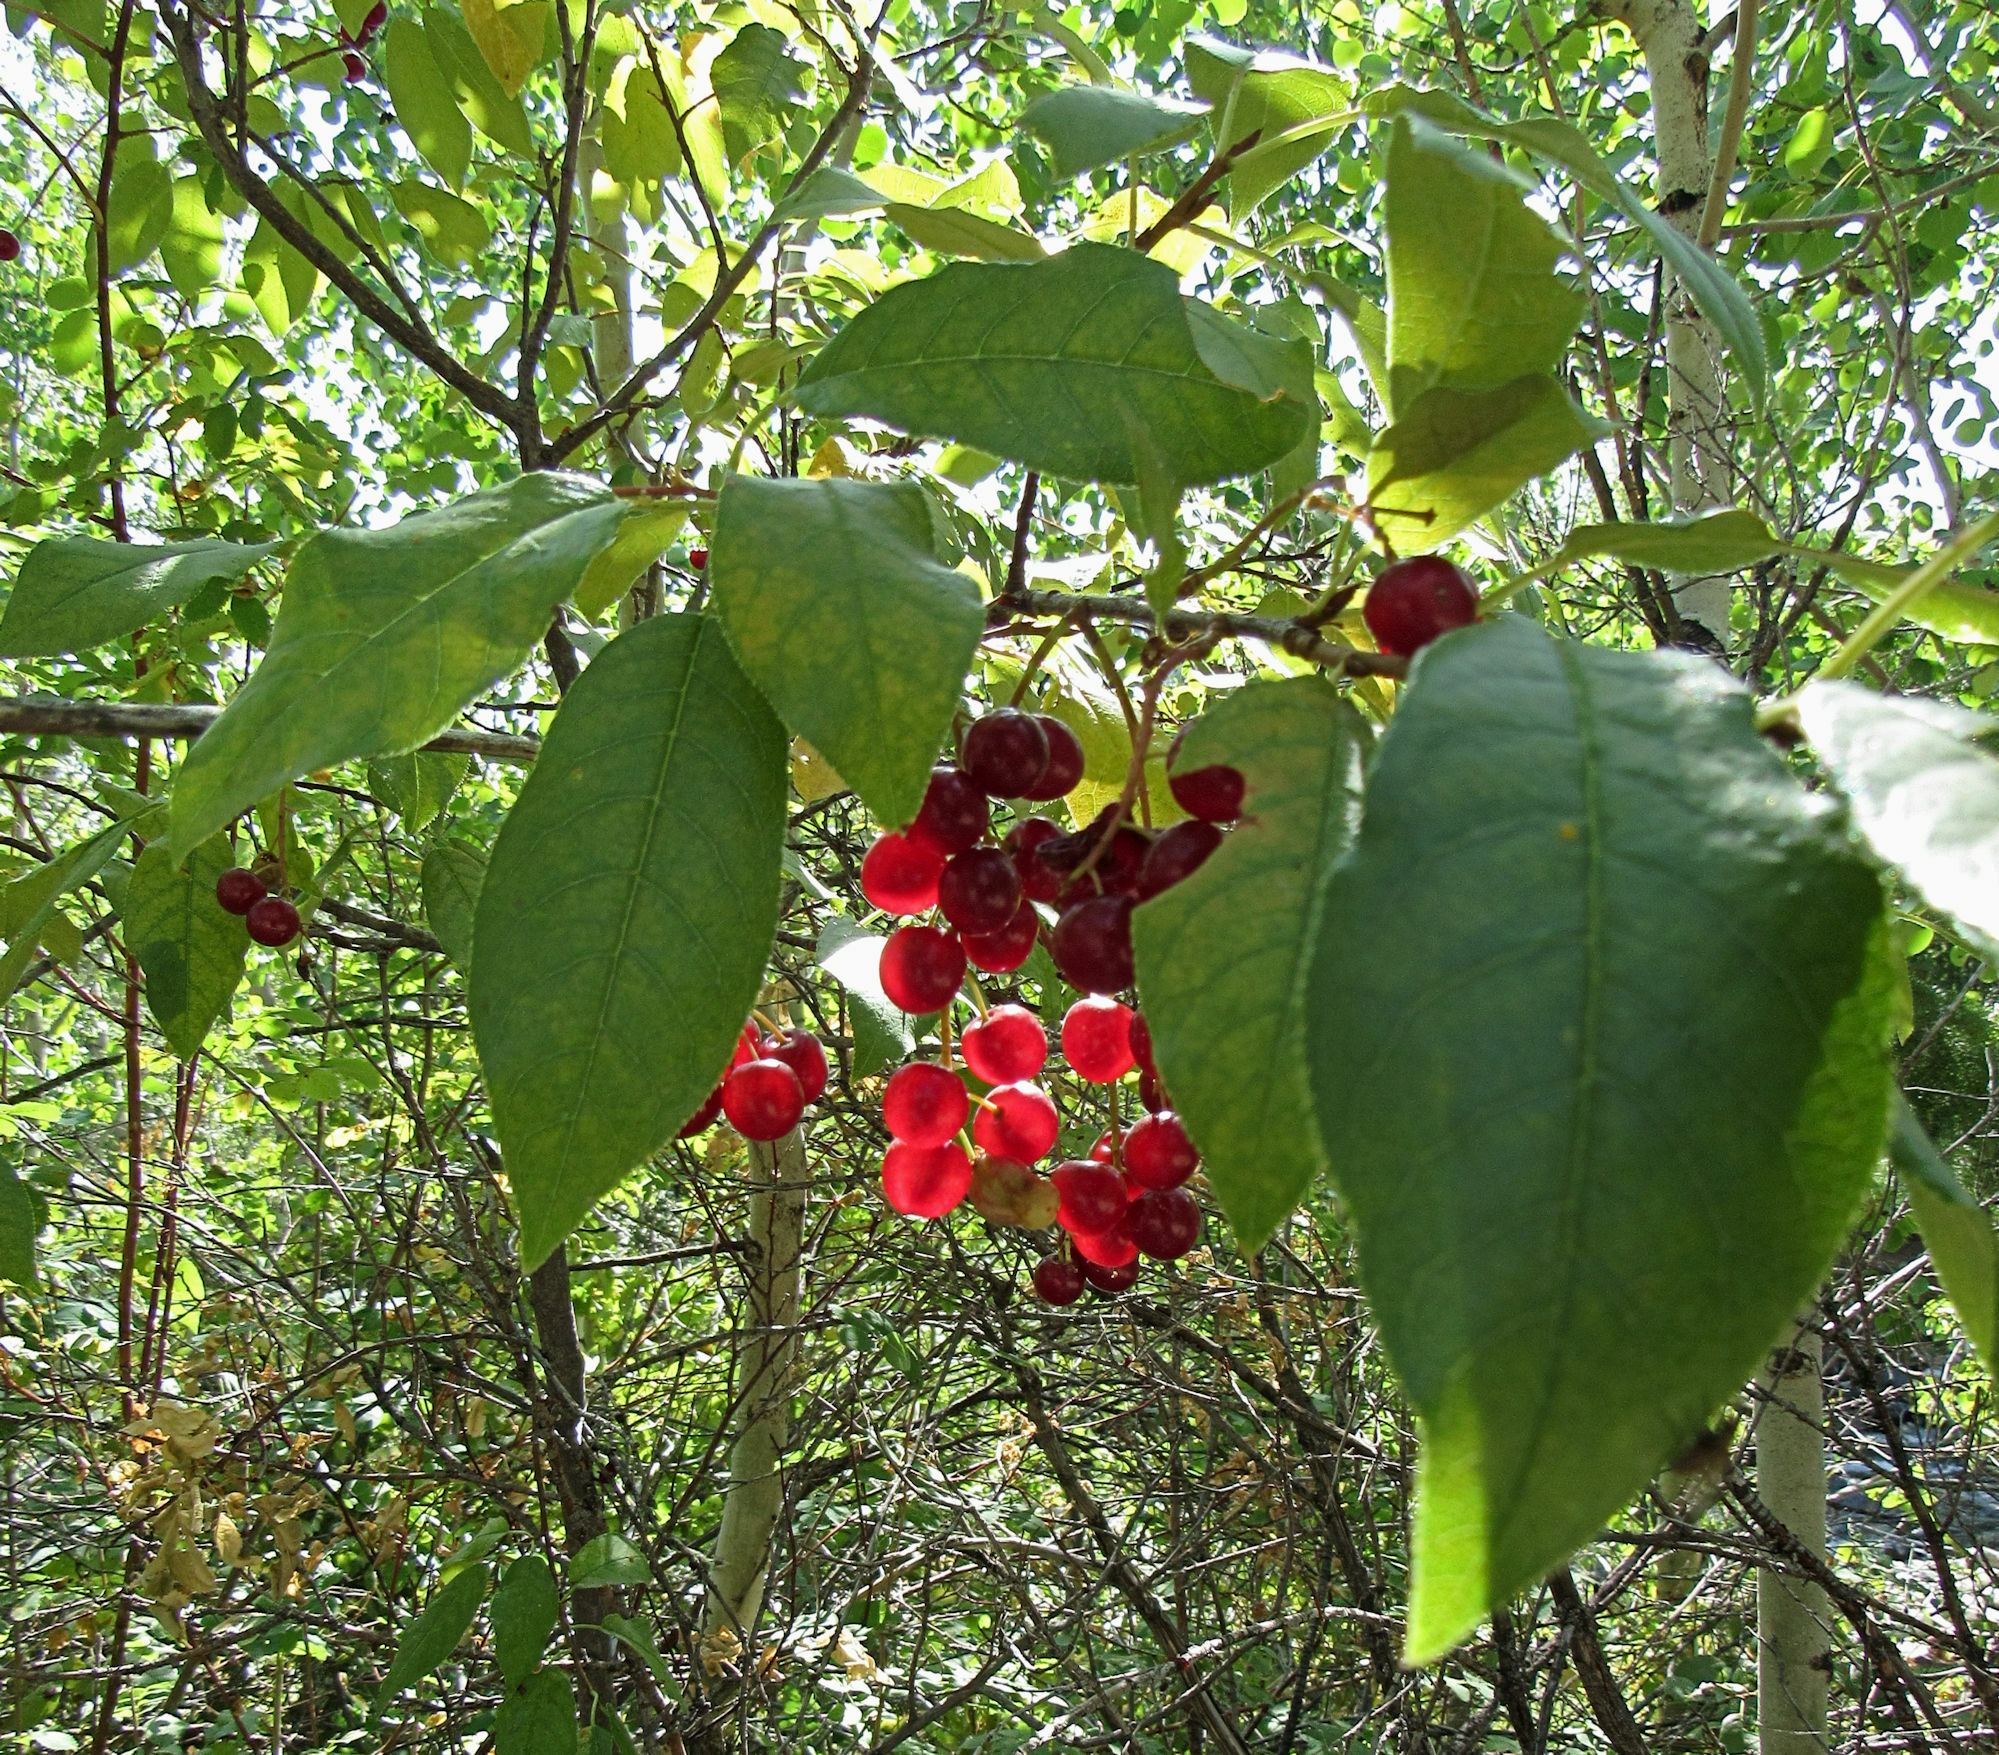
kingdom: Plantae
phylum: Tracheophyta
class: Magnoliopsida
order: Rosales
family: Rosaceae
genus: Prunus
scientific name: Prunus virginiana
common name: Chokecherry
